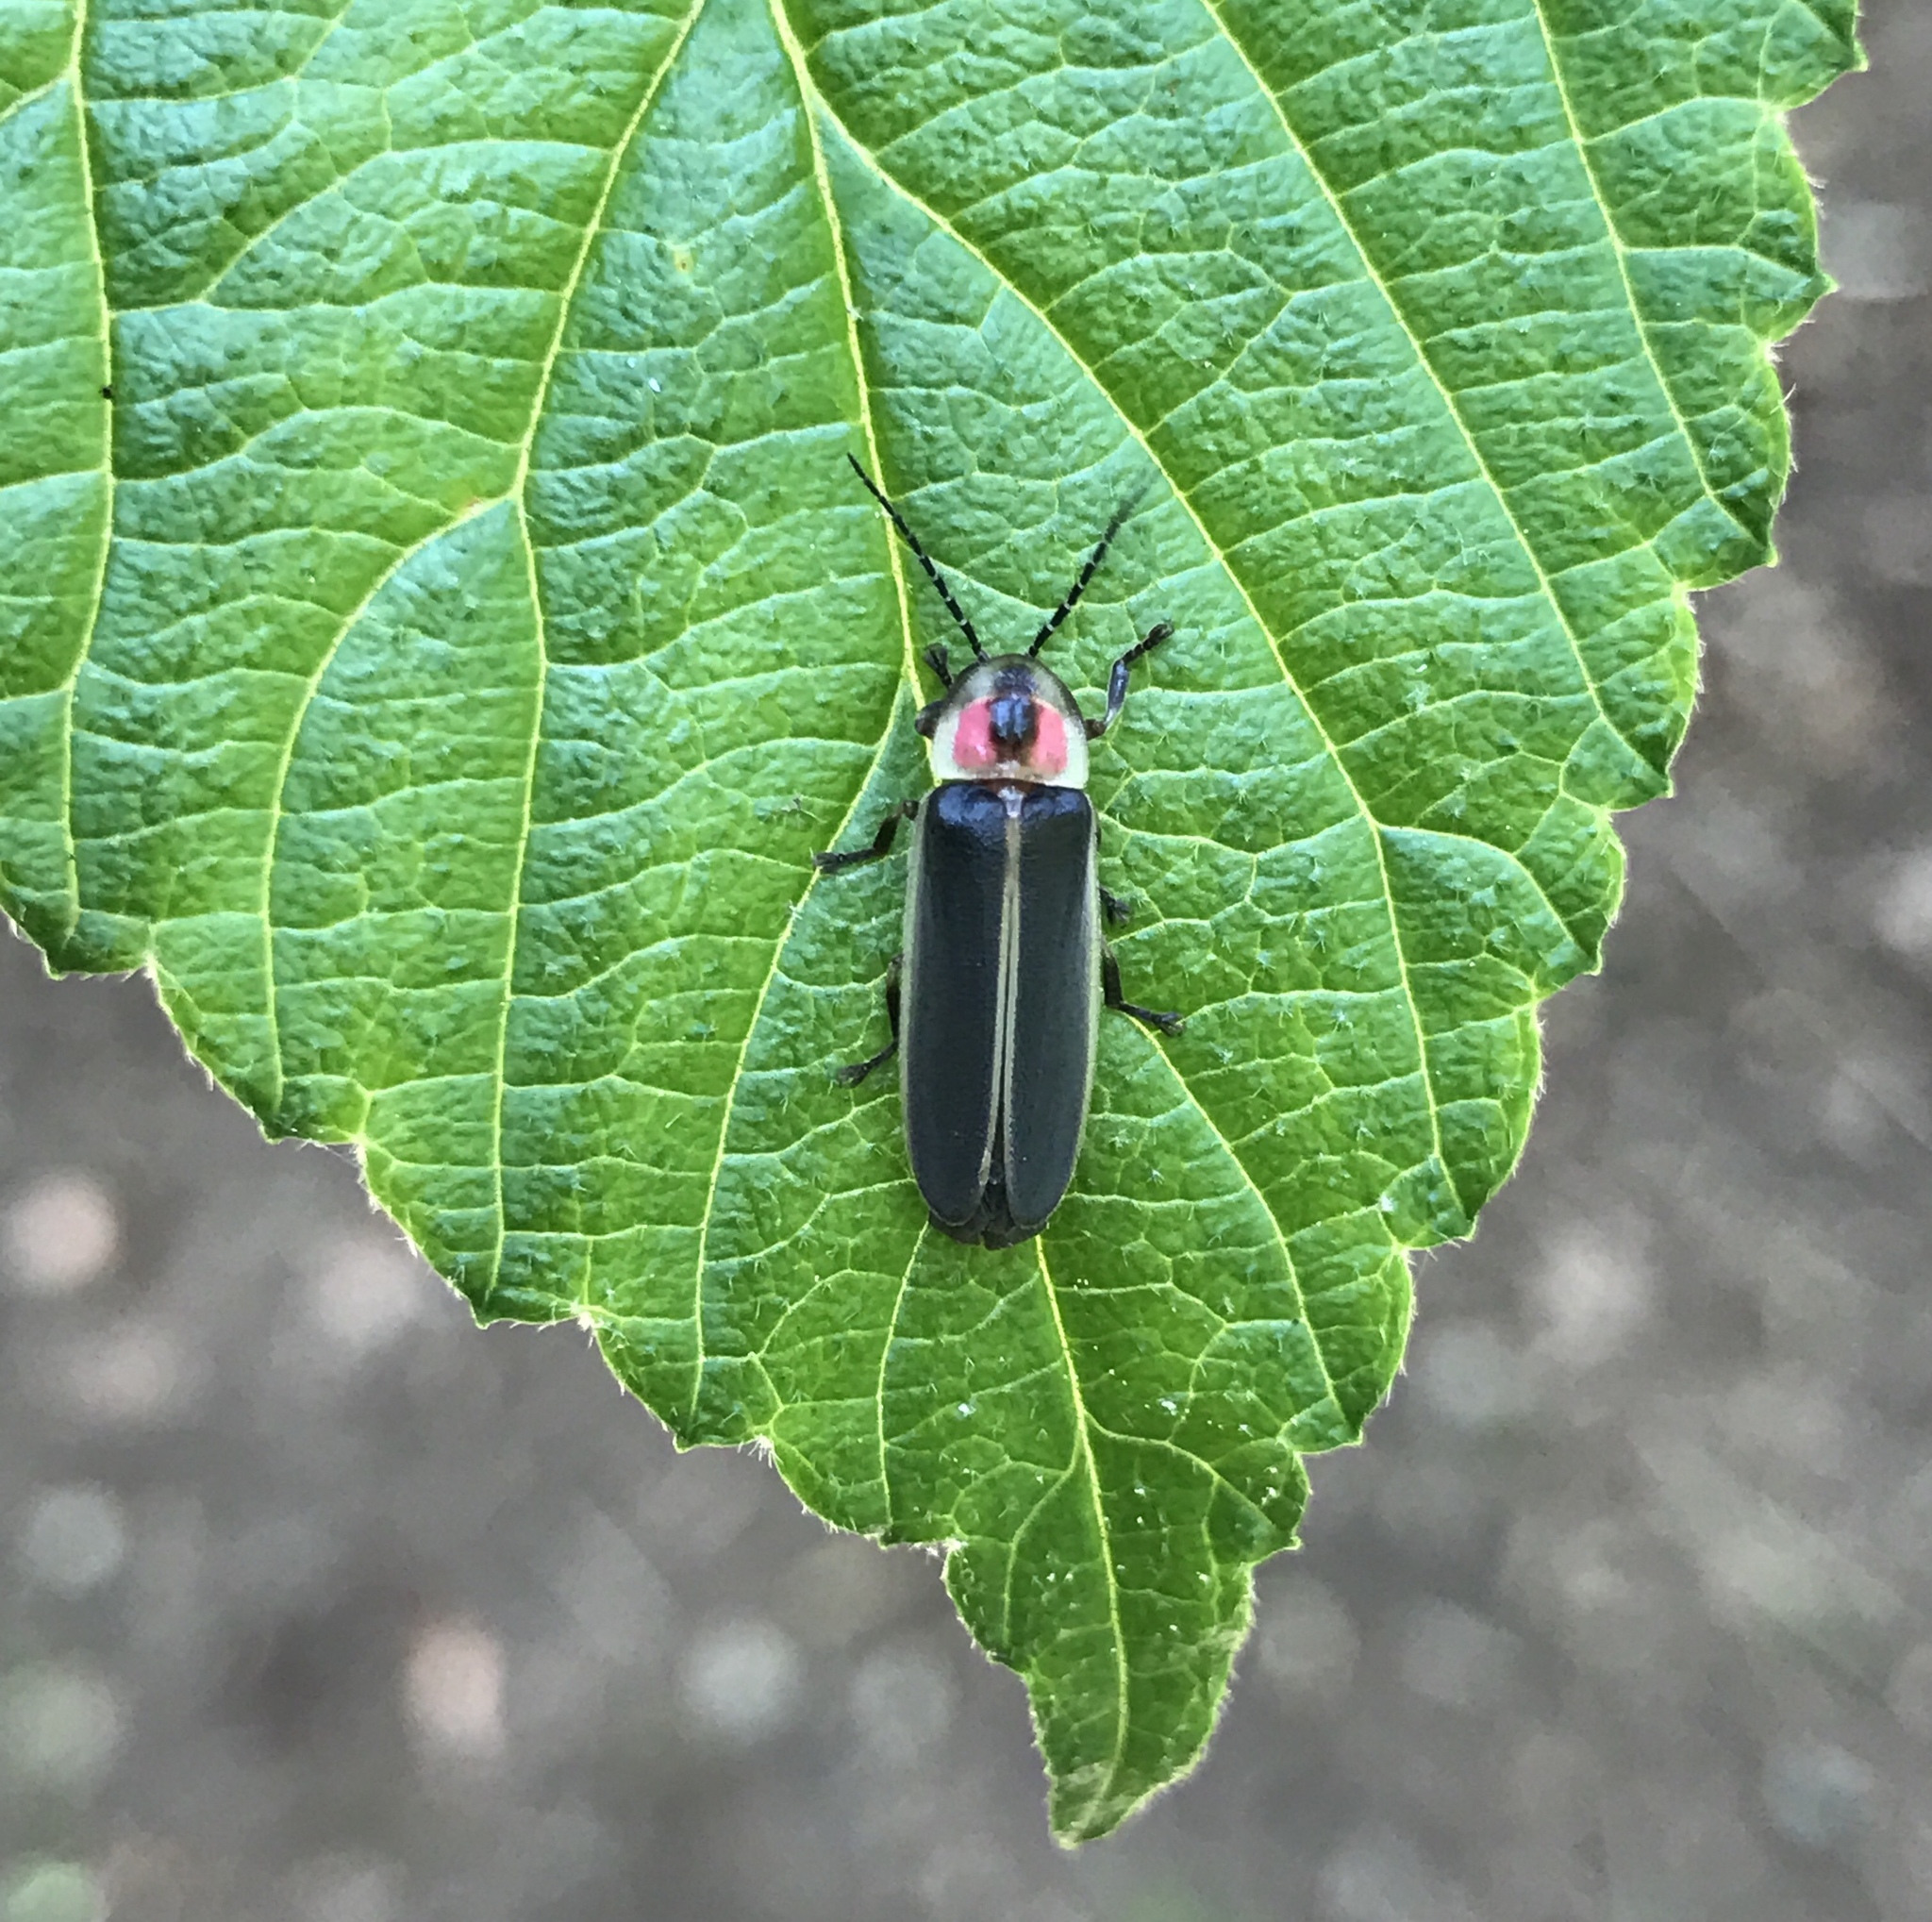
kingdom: Animalia
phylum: Arthropoda
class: Insecta
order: Coleoptera
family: Lampyridae
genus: Photinus
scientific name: Photinus pyralis
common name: Big dipper firefly
